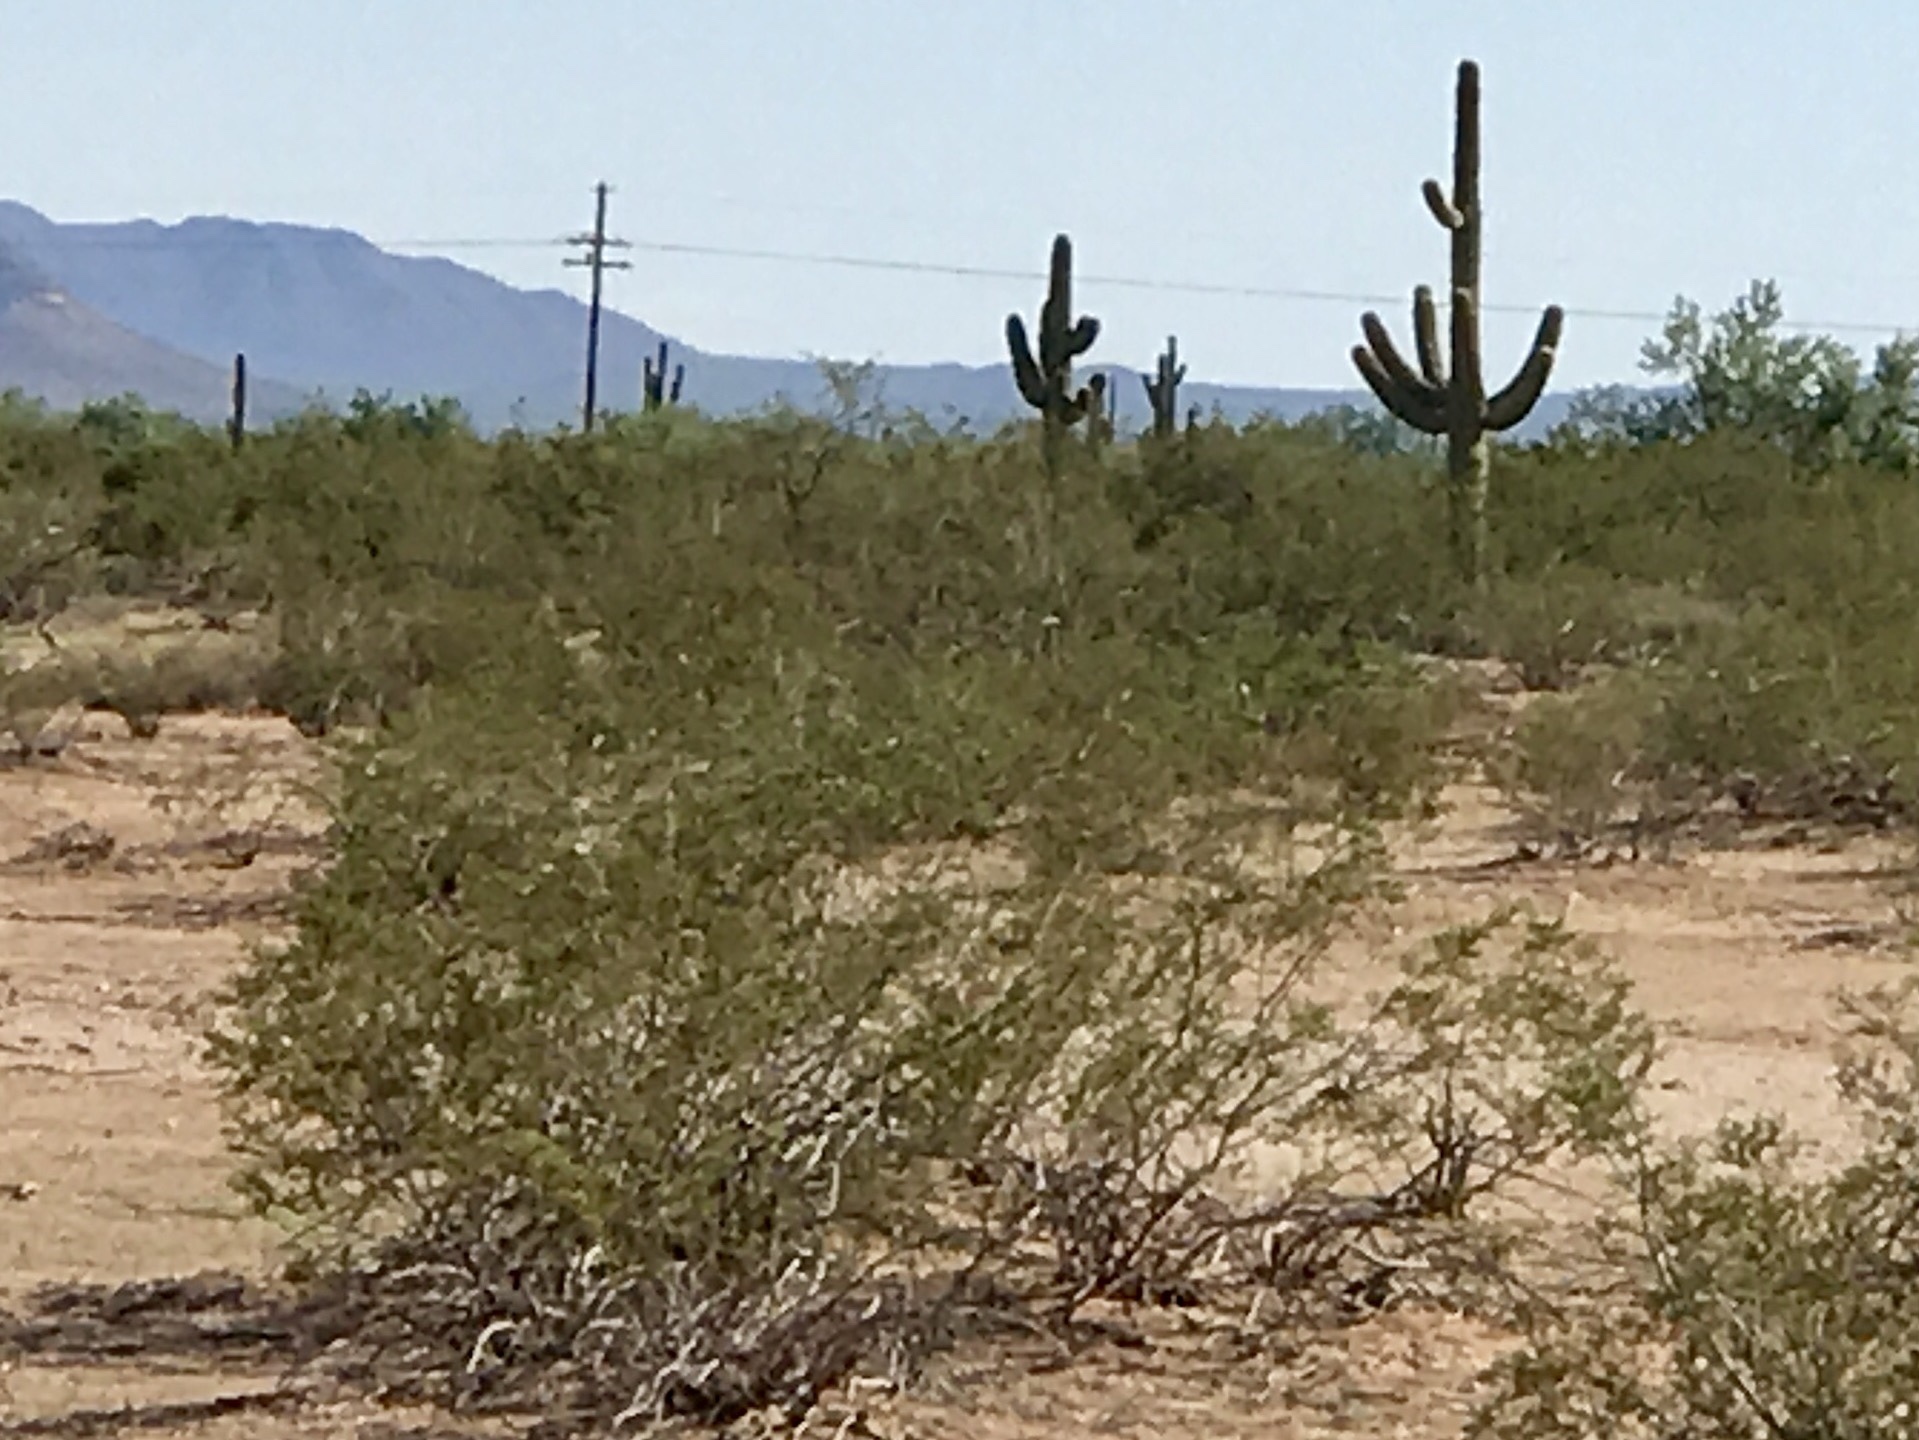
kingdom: Plantae
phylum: Tracheophyta
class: Magnoliopsida
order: Zygophyllales
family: Zygophyllaceae
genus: Larrea
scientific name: Larrea tridentata
